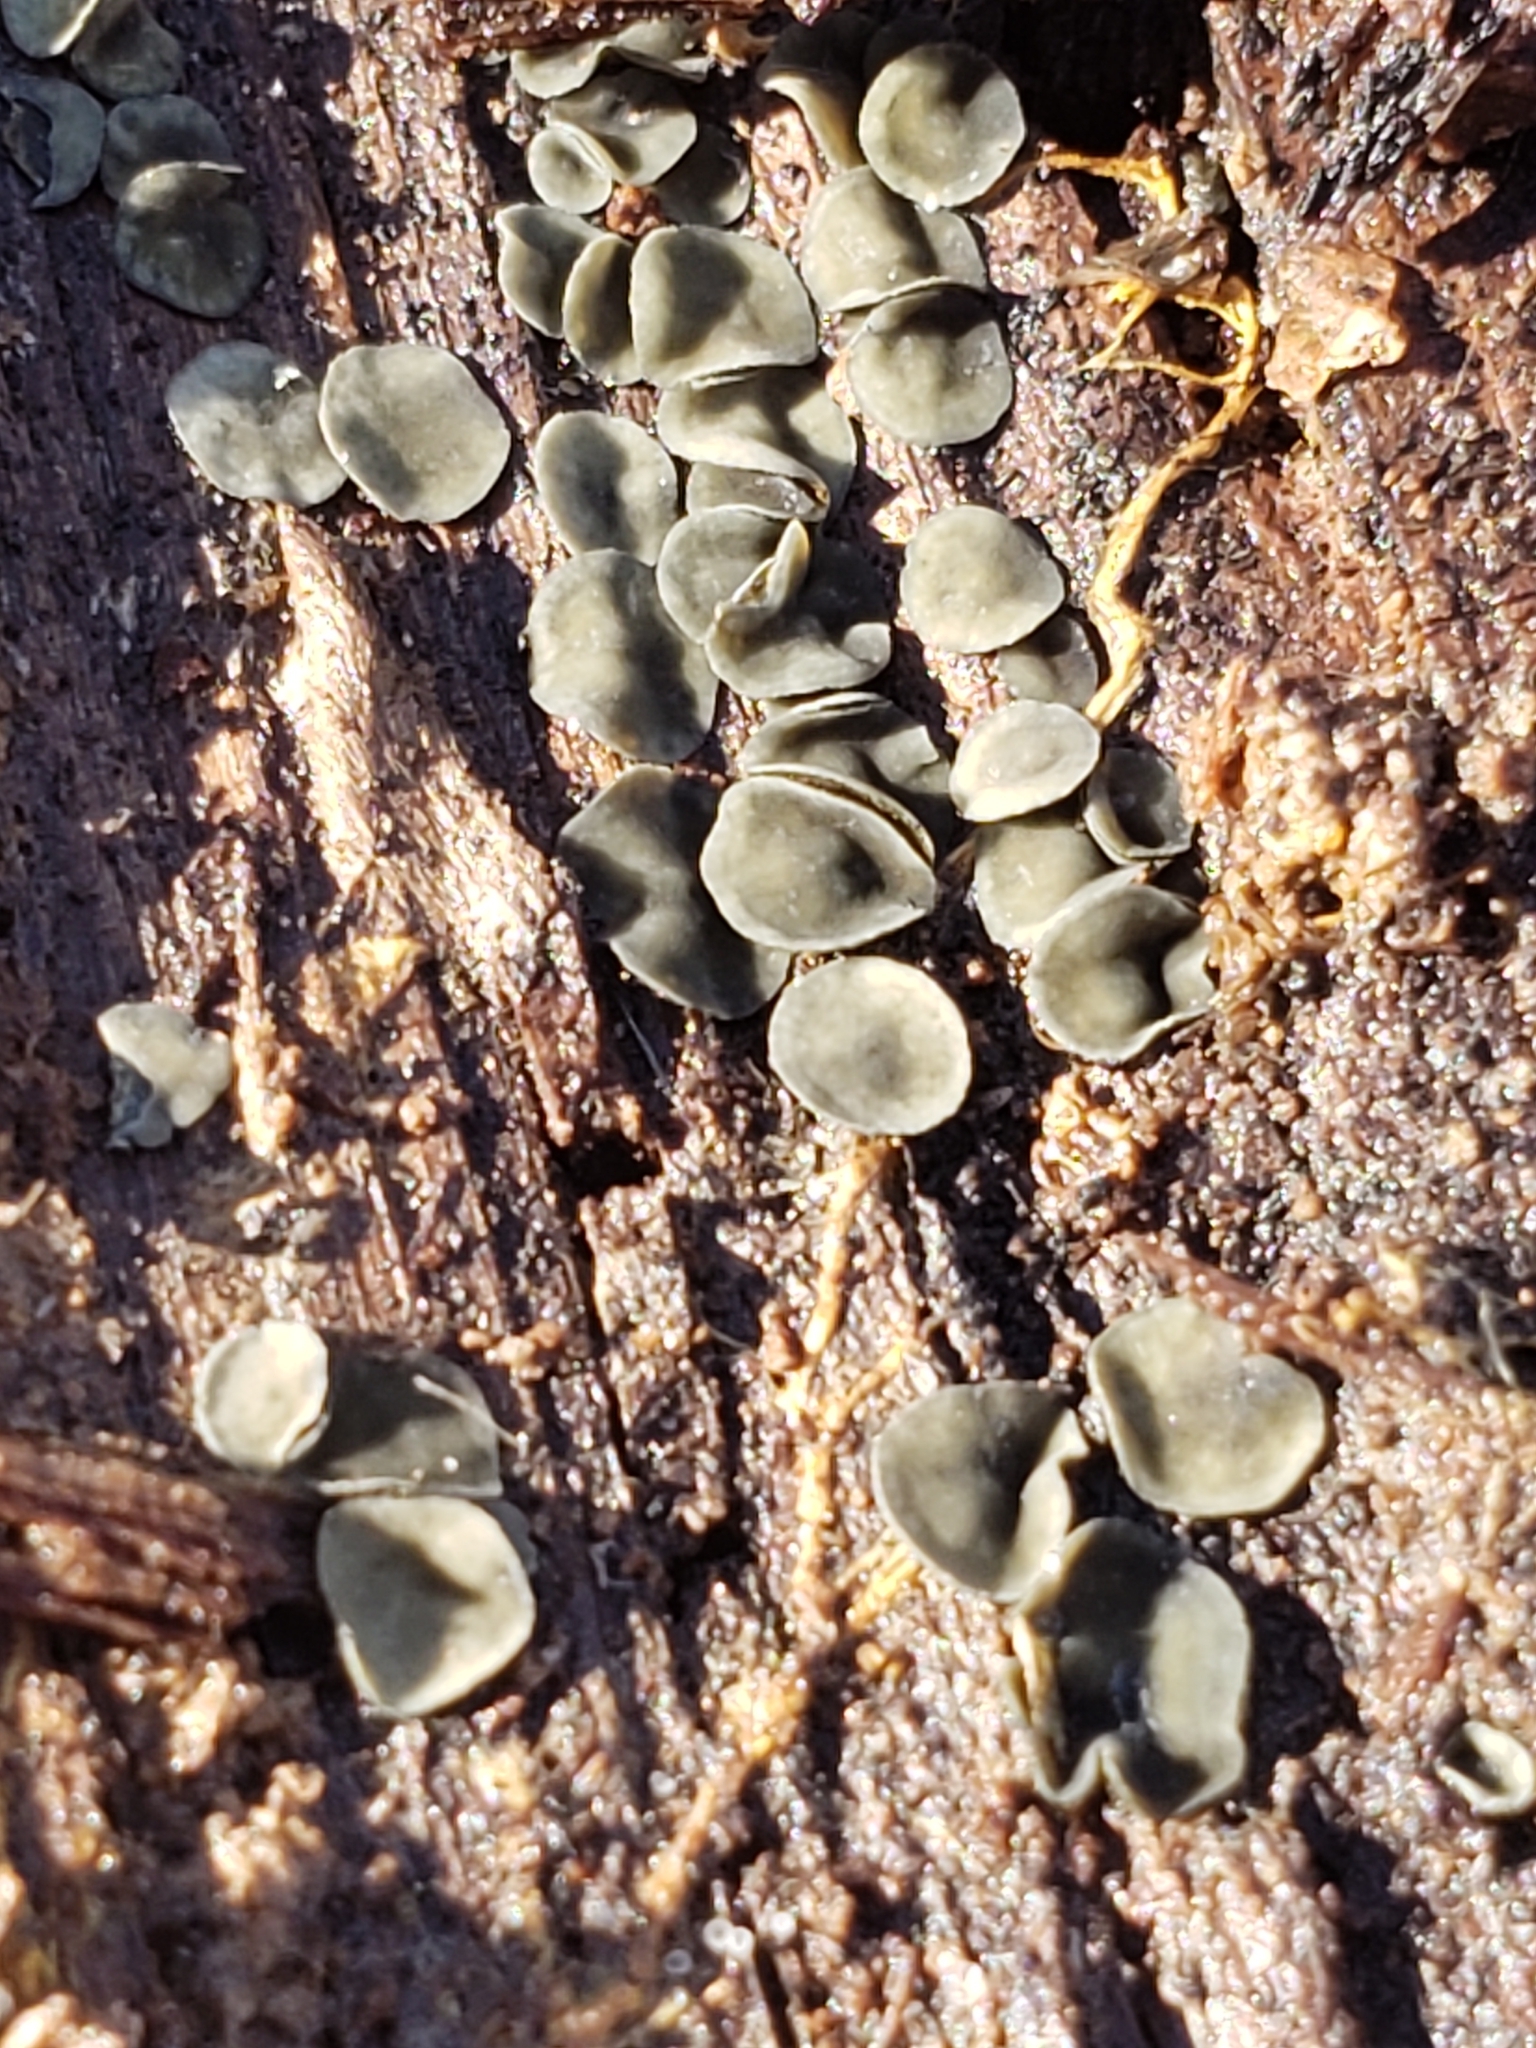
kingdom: Fungi
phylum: Ascomycota
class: Leotiomycetes
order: Helotiales
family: Chlorospleniaceae
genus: Chlorosplenium
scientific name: Chlorosplenium chlora
